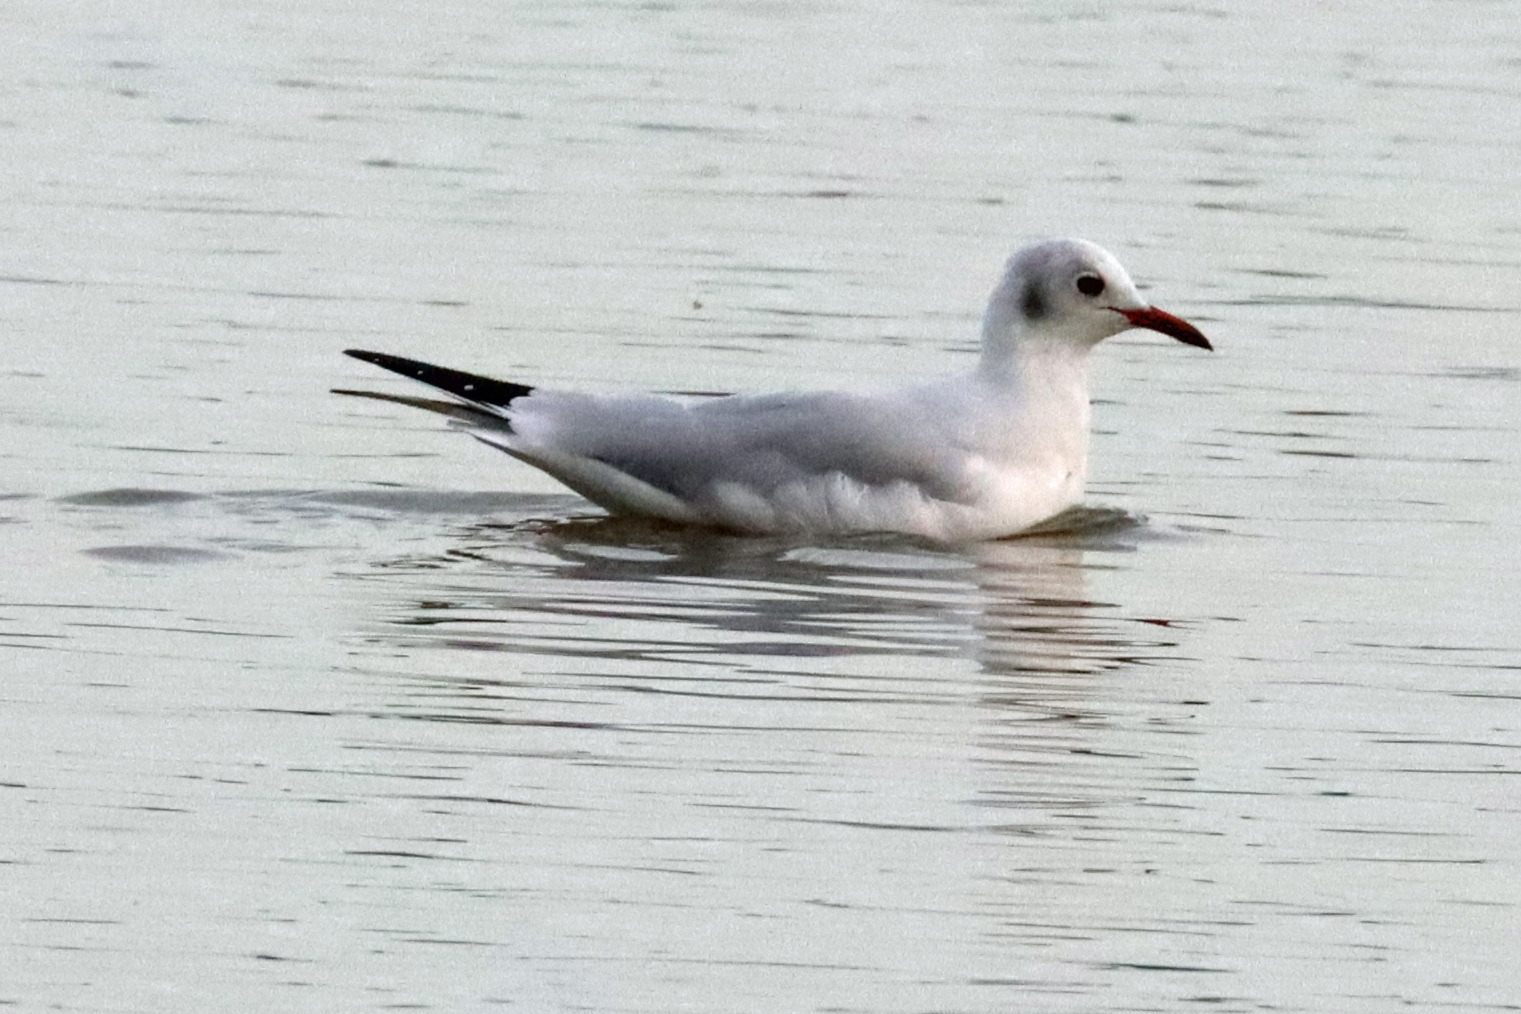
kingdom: Animalia
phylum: Chordata
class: Aves
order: Charadriiformes
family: Laridae
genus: Chroicocephalus
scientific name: Chroicocephalus ridibundus
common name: Black-headed gull
